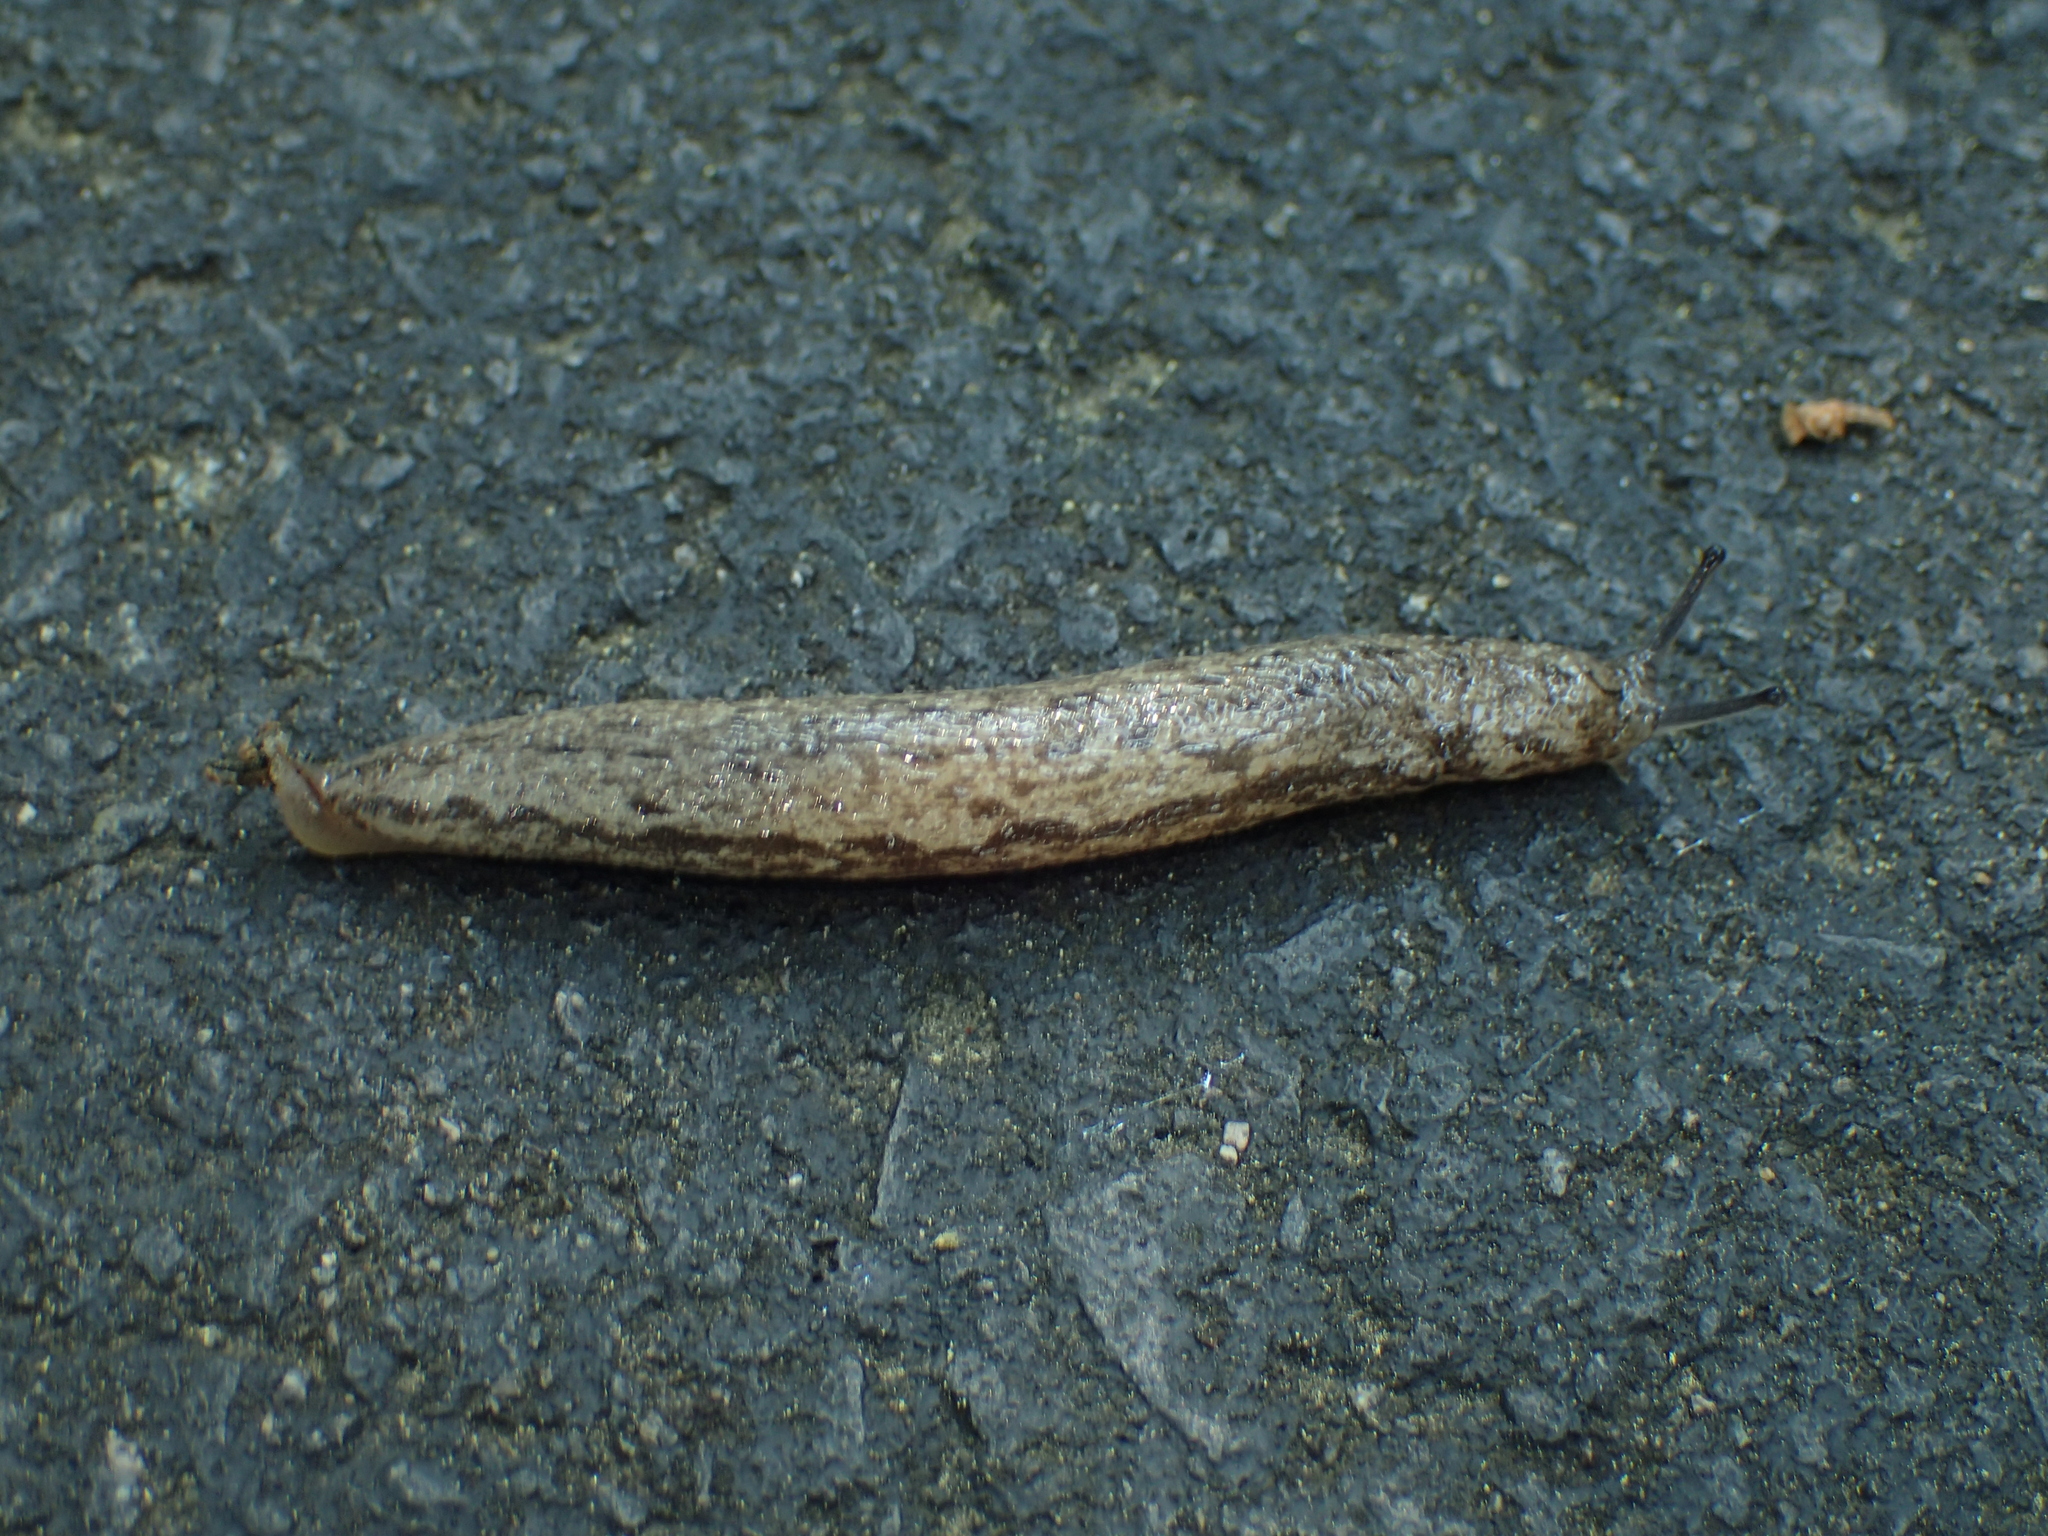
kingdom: Animalia
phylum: Mollusca
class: Gastropoda
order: Stylommatophora
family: Philomycidae
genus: Megapallifera
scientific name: Megapallifera mutabilis
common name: Changeable mantleslug
